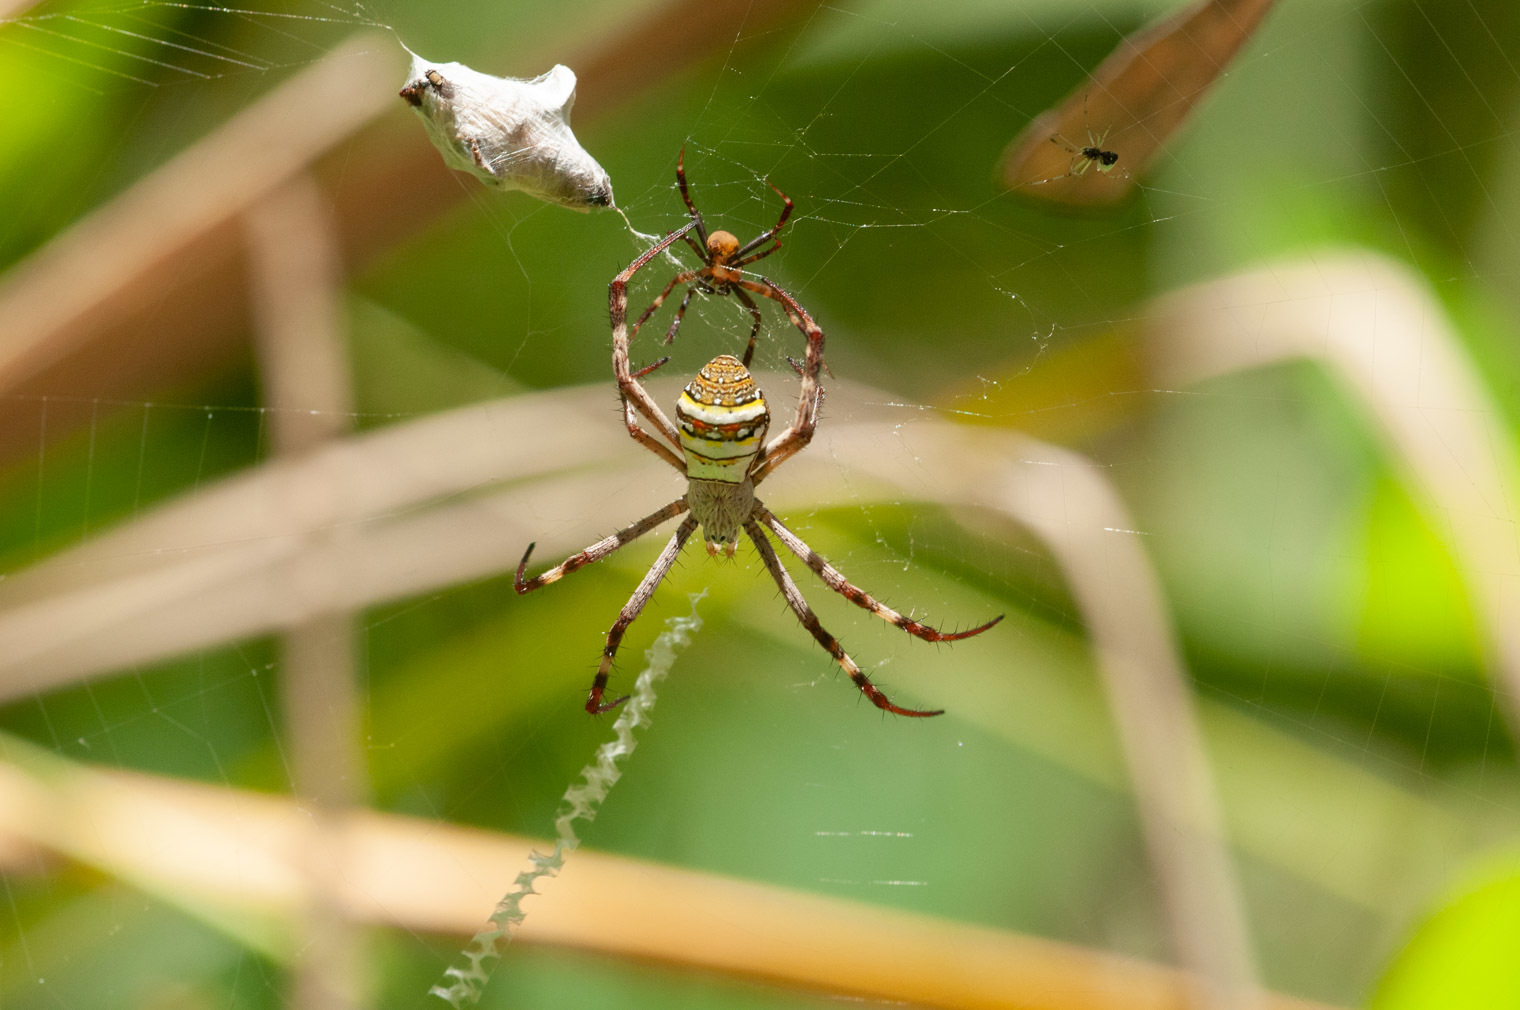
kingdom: Animalia
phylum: Arthropoda
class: Arachnida
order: Araneae
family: Araneidae
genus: Argiope
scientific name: Argiope keyserlingi
